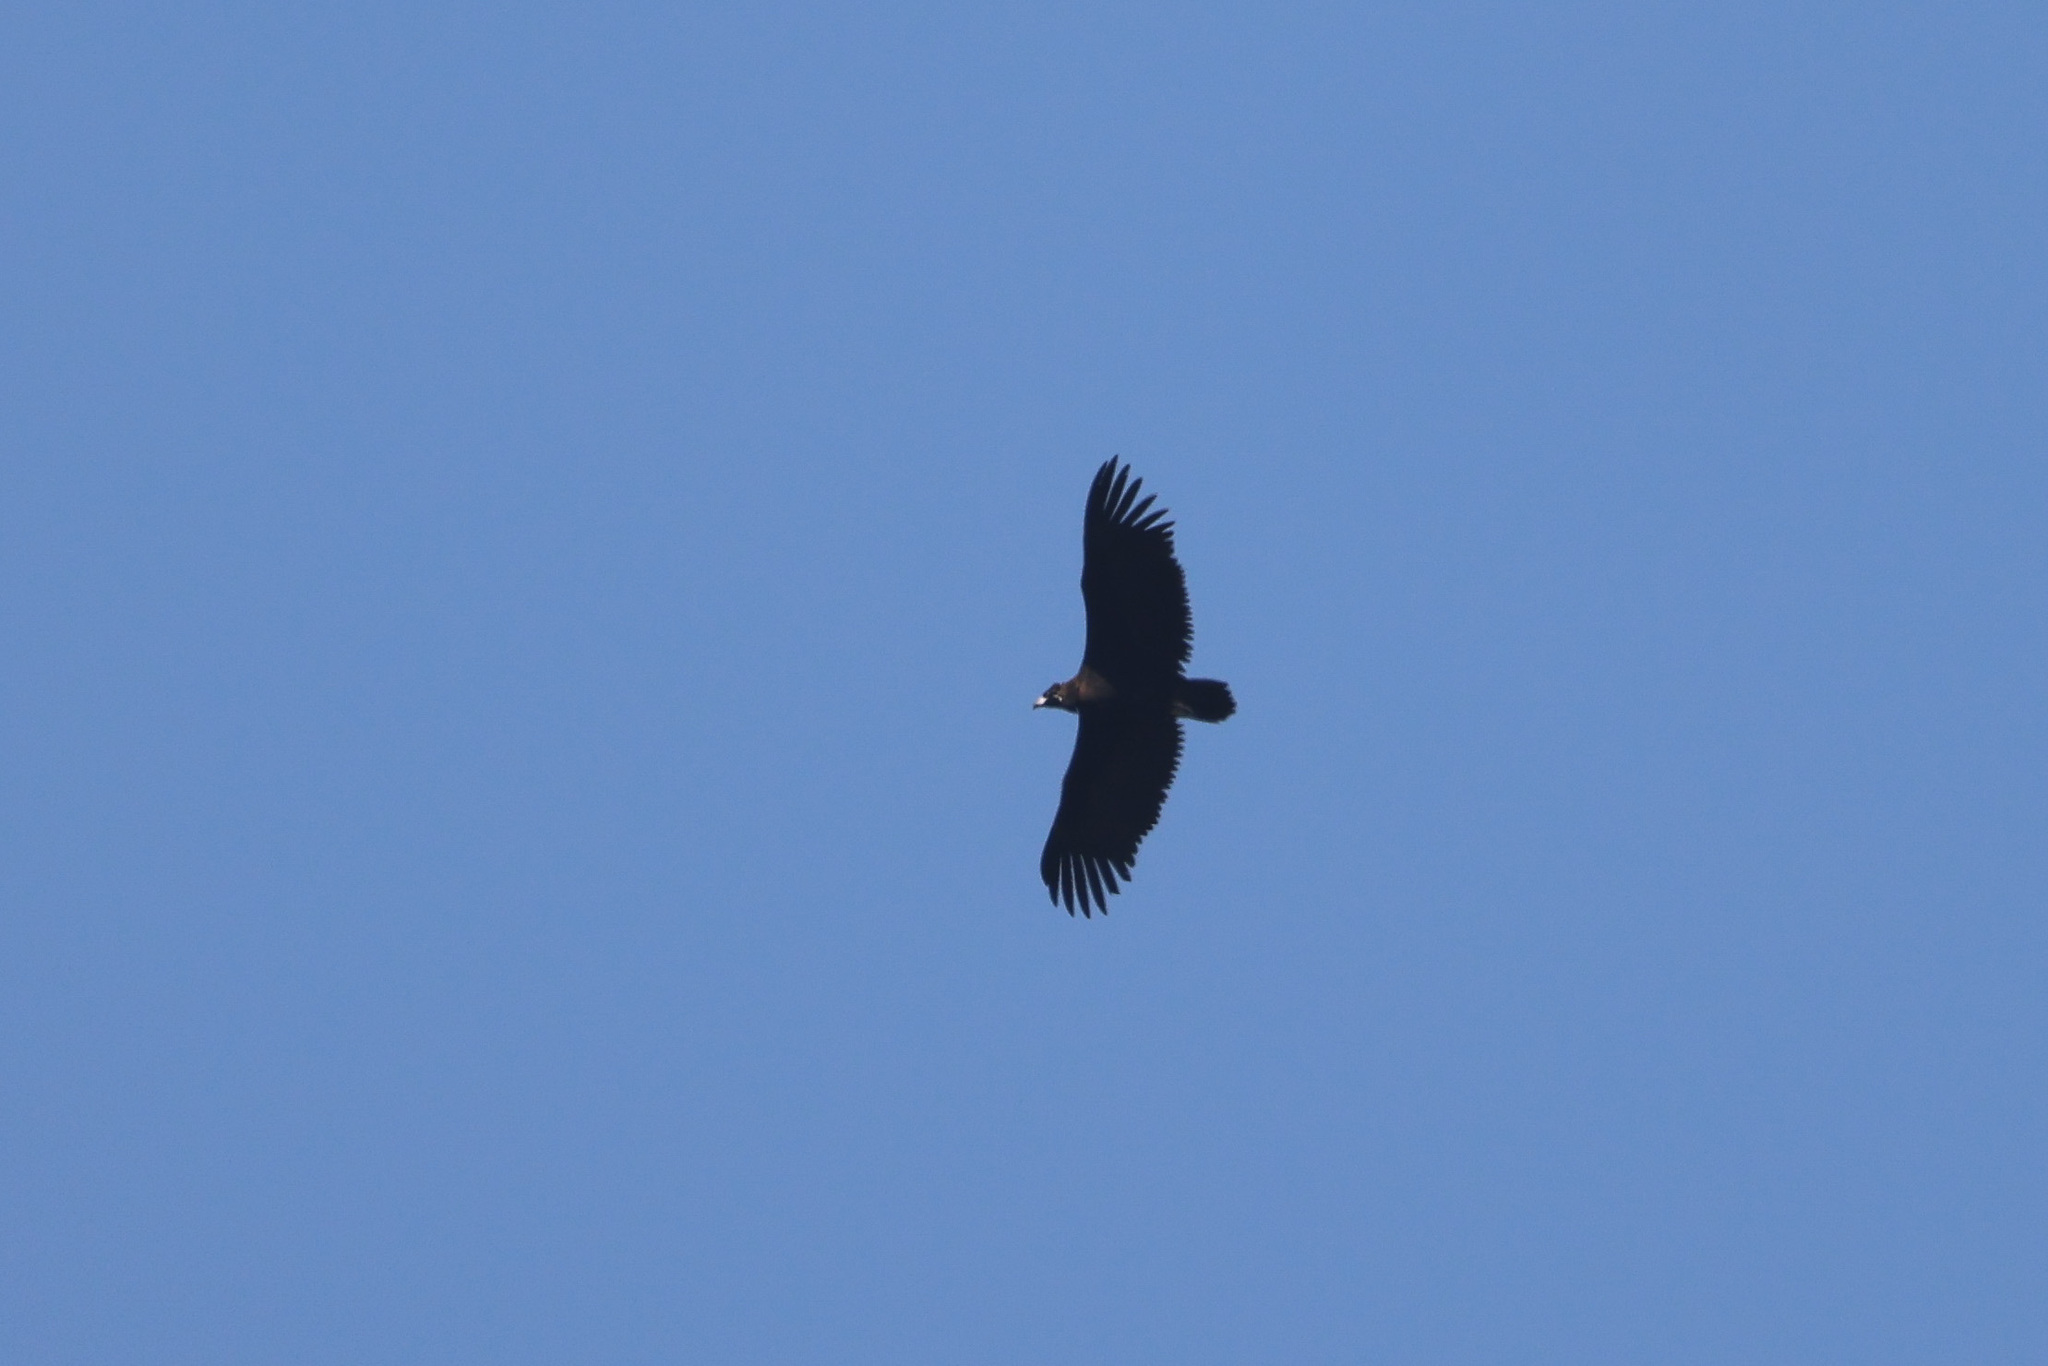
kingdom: Animalia
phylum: Chordata
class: Aves
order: Accipitriformes
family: Accipitridae
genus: Aegypius
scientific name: Aegypius monachus
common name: Cinereous vulture
